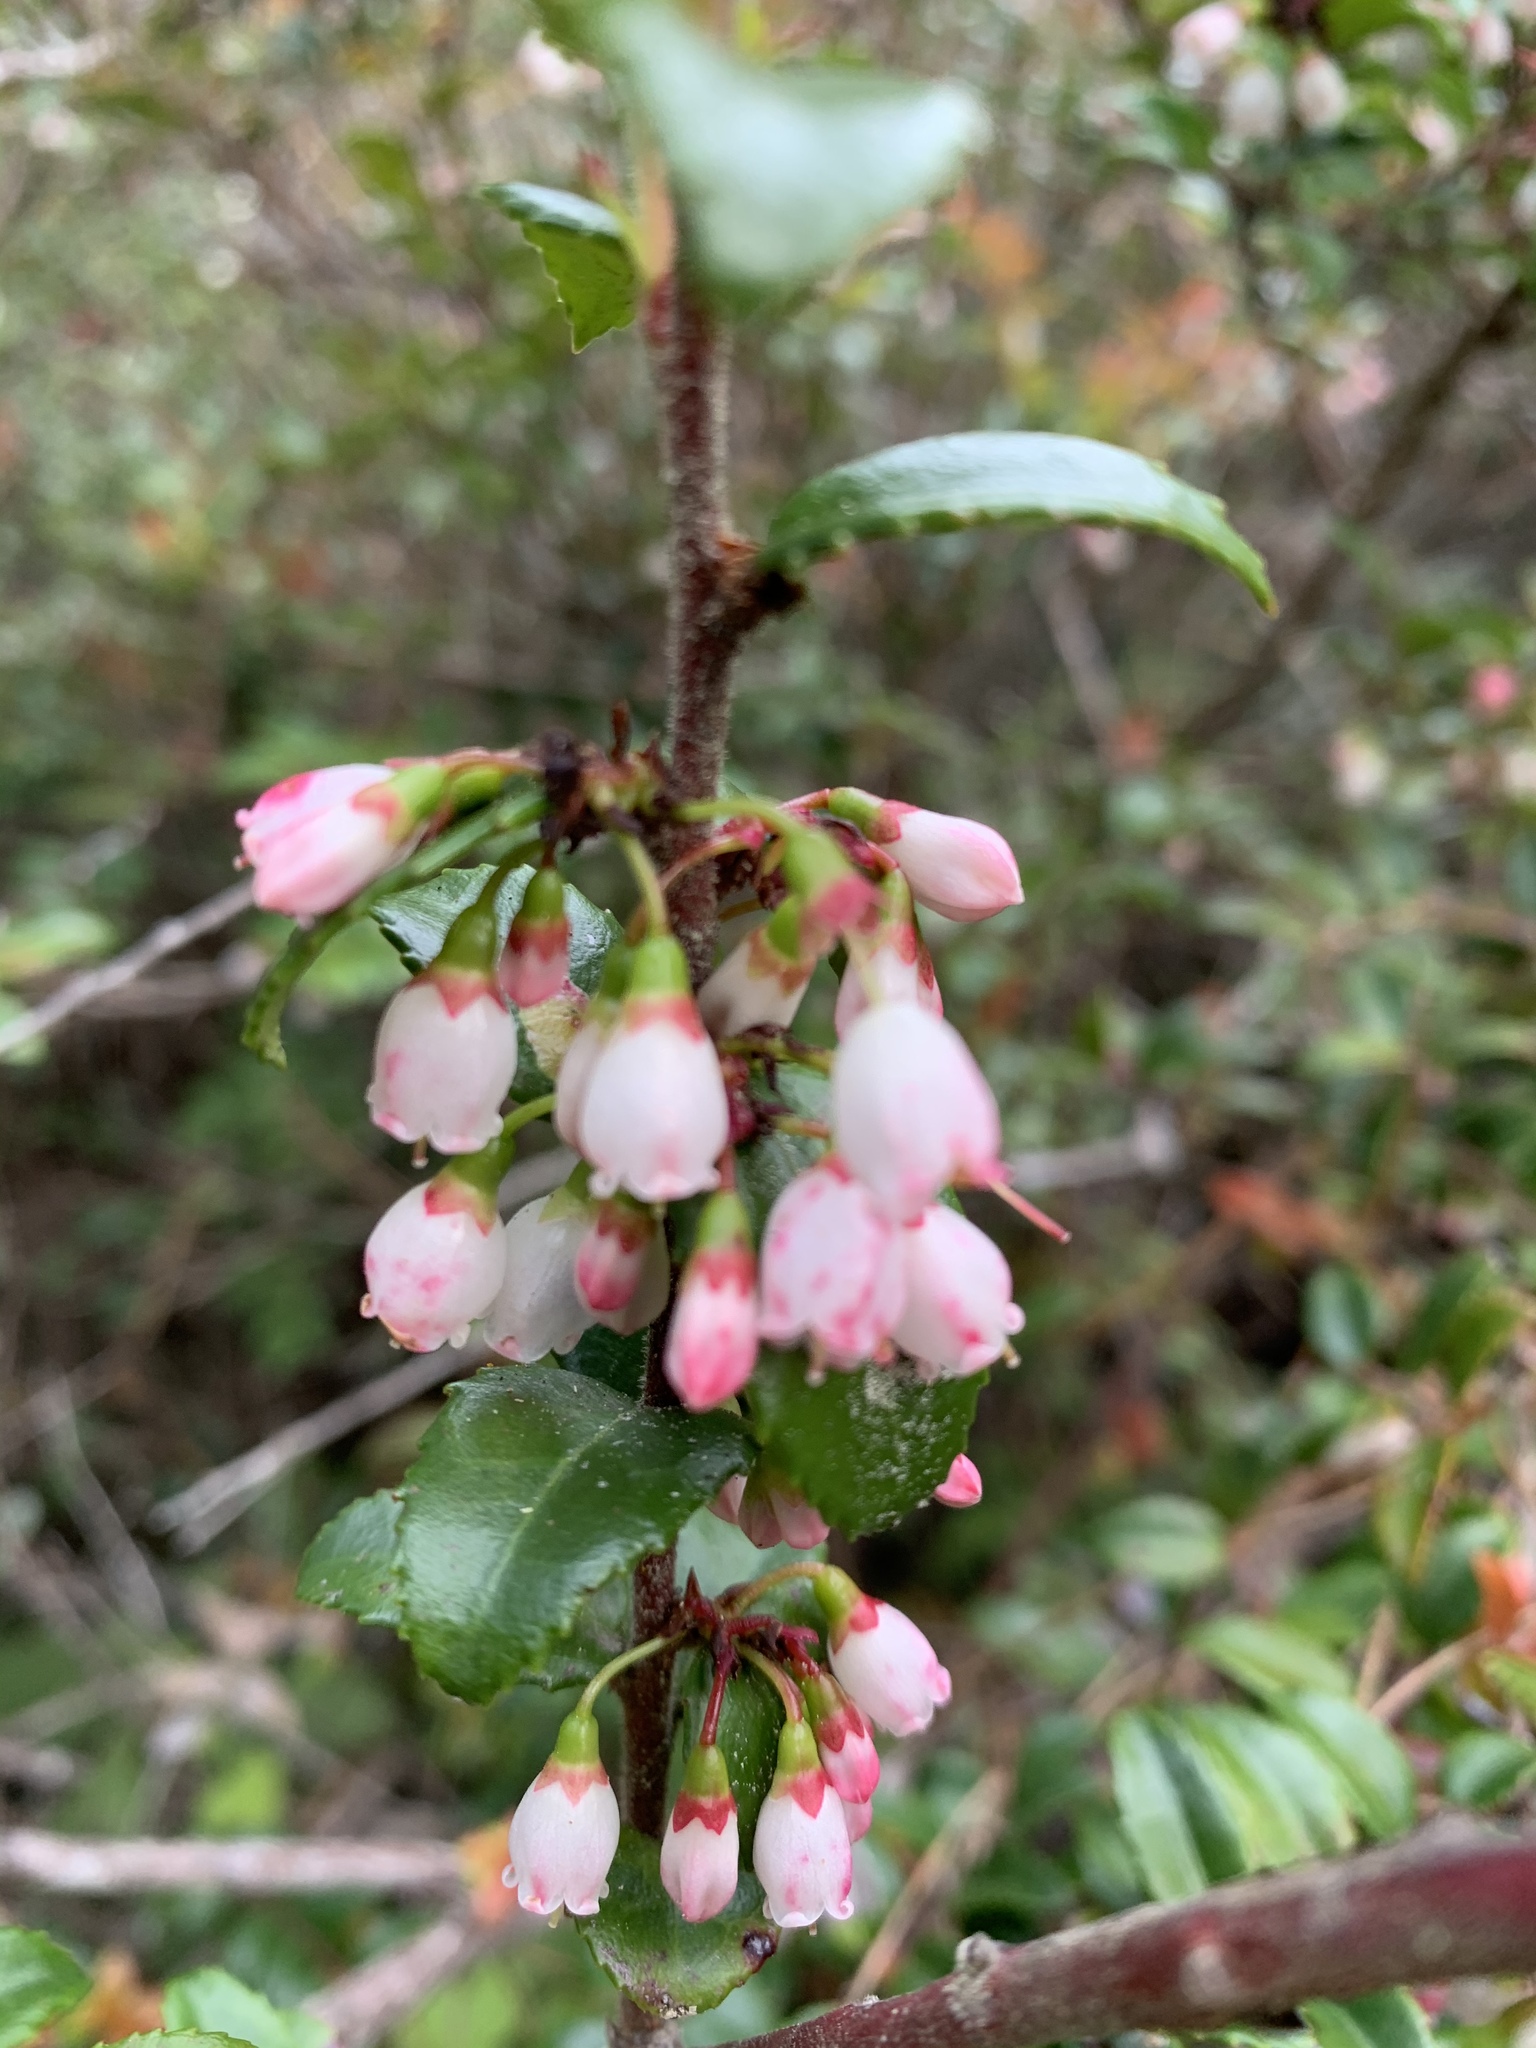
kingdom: Plantae
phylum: Tracheophyta
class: Magnoliopsida
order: Ericales
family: Ericaceae
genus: Vaccinium
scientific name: Vaccinium ovatum
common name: California-huckleberry
